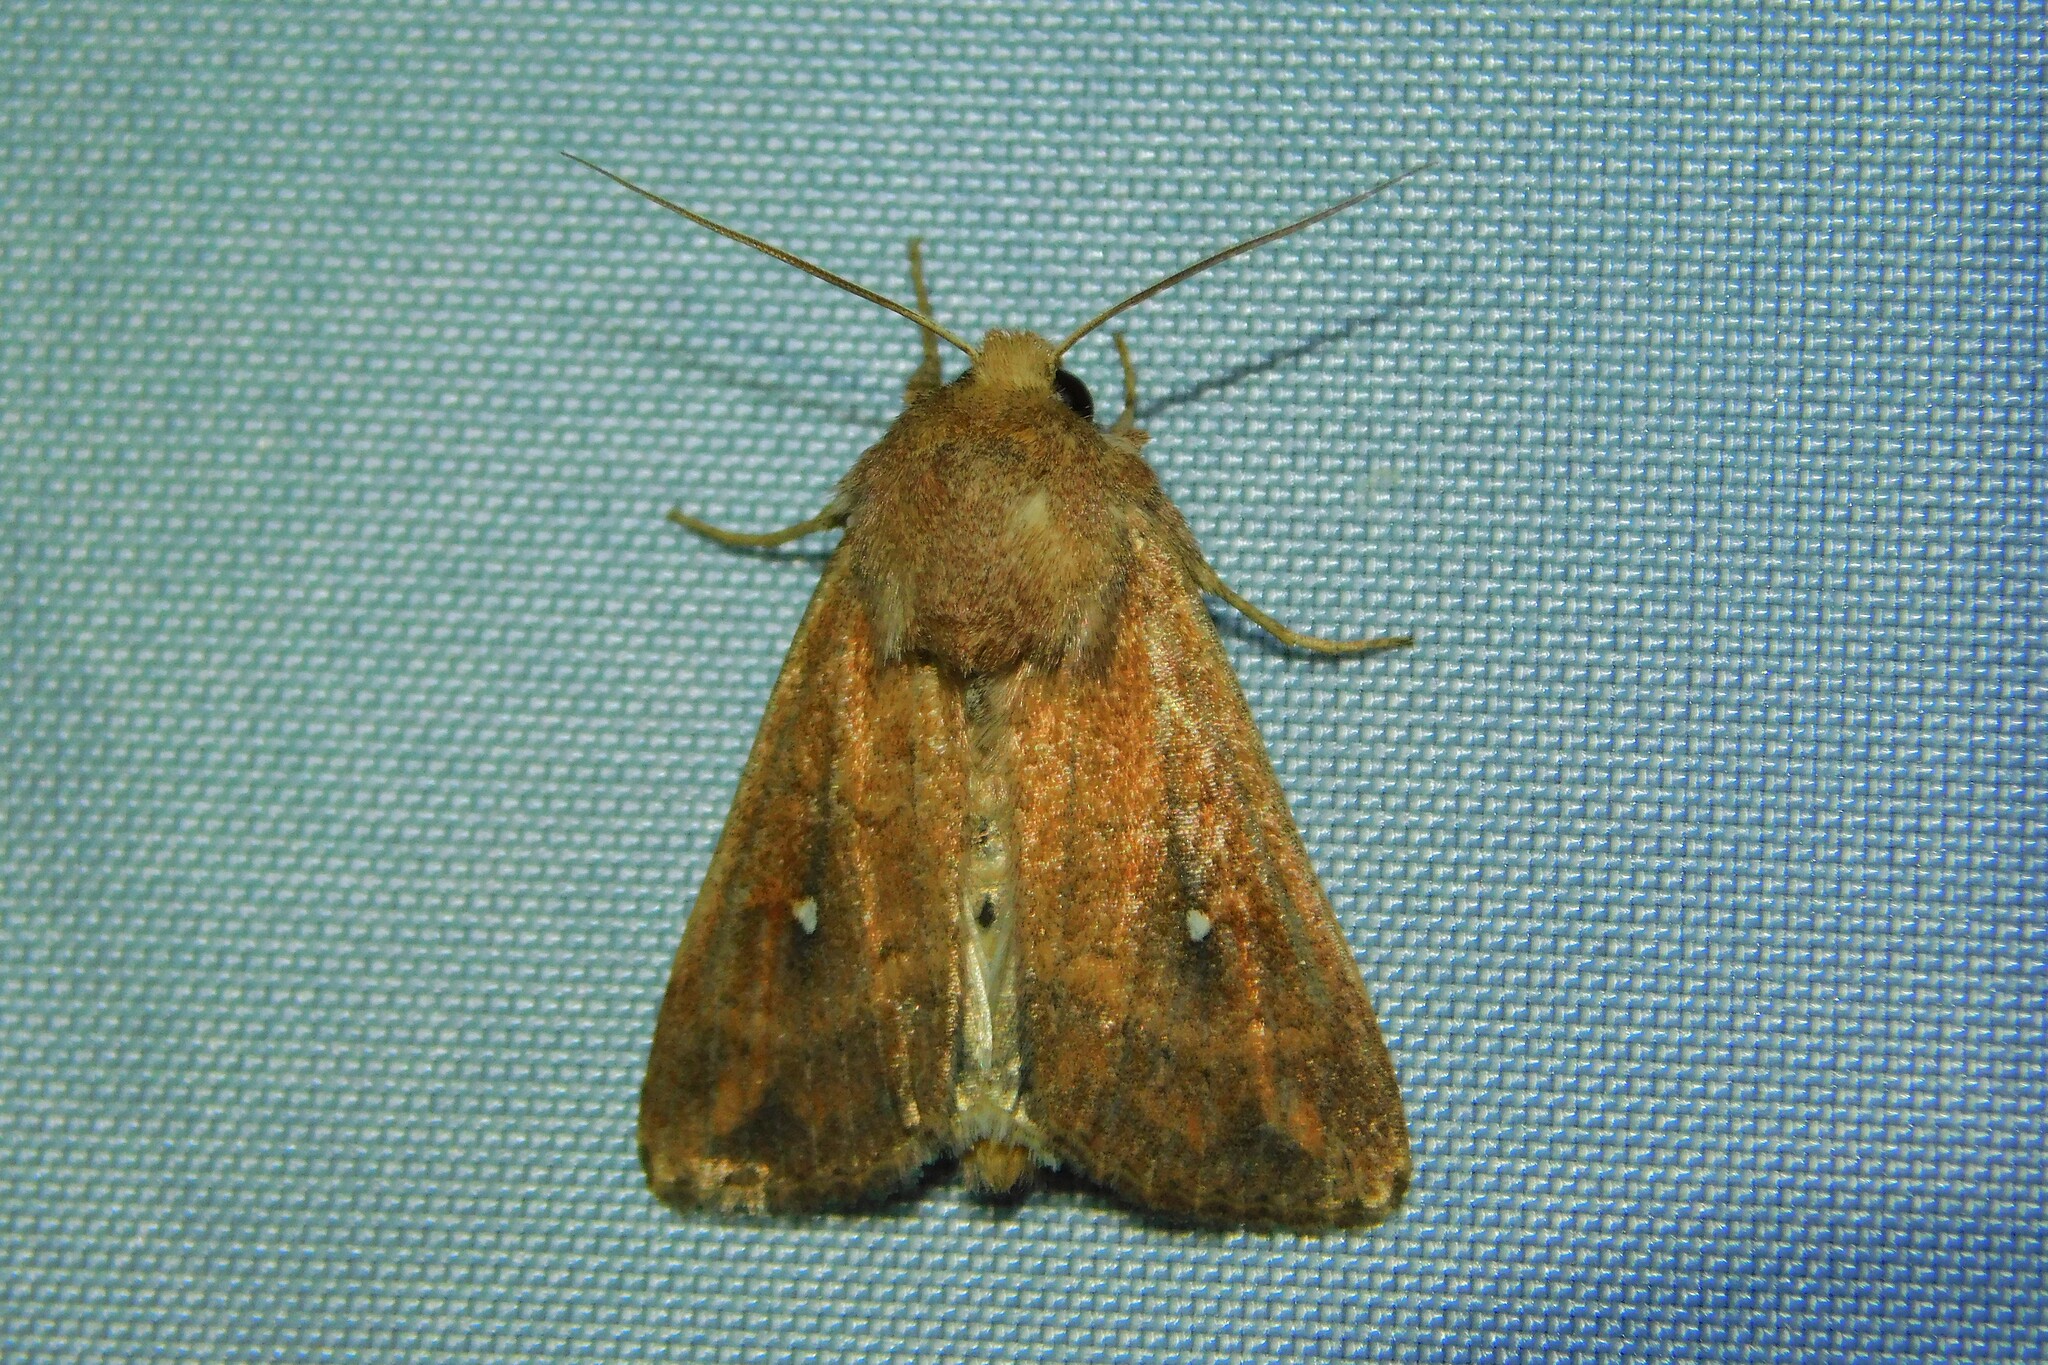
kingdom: Animalia
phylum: Arthropoda
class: Insecta
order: Lepidoptera
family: Noctuidae
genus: Mythimna
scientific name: Mythimna albipuncta
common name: White-point
